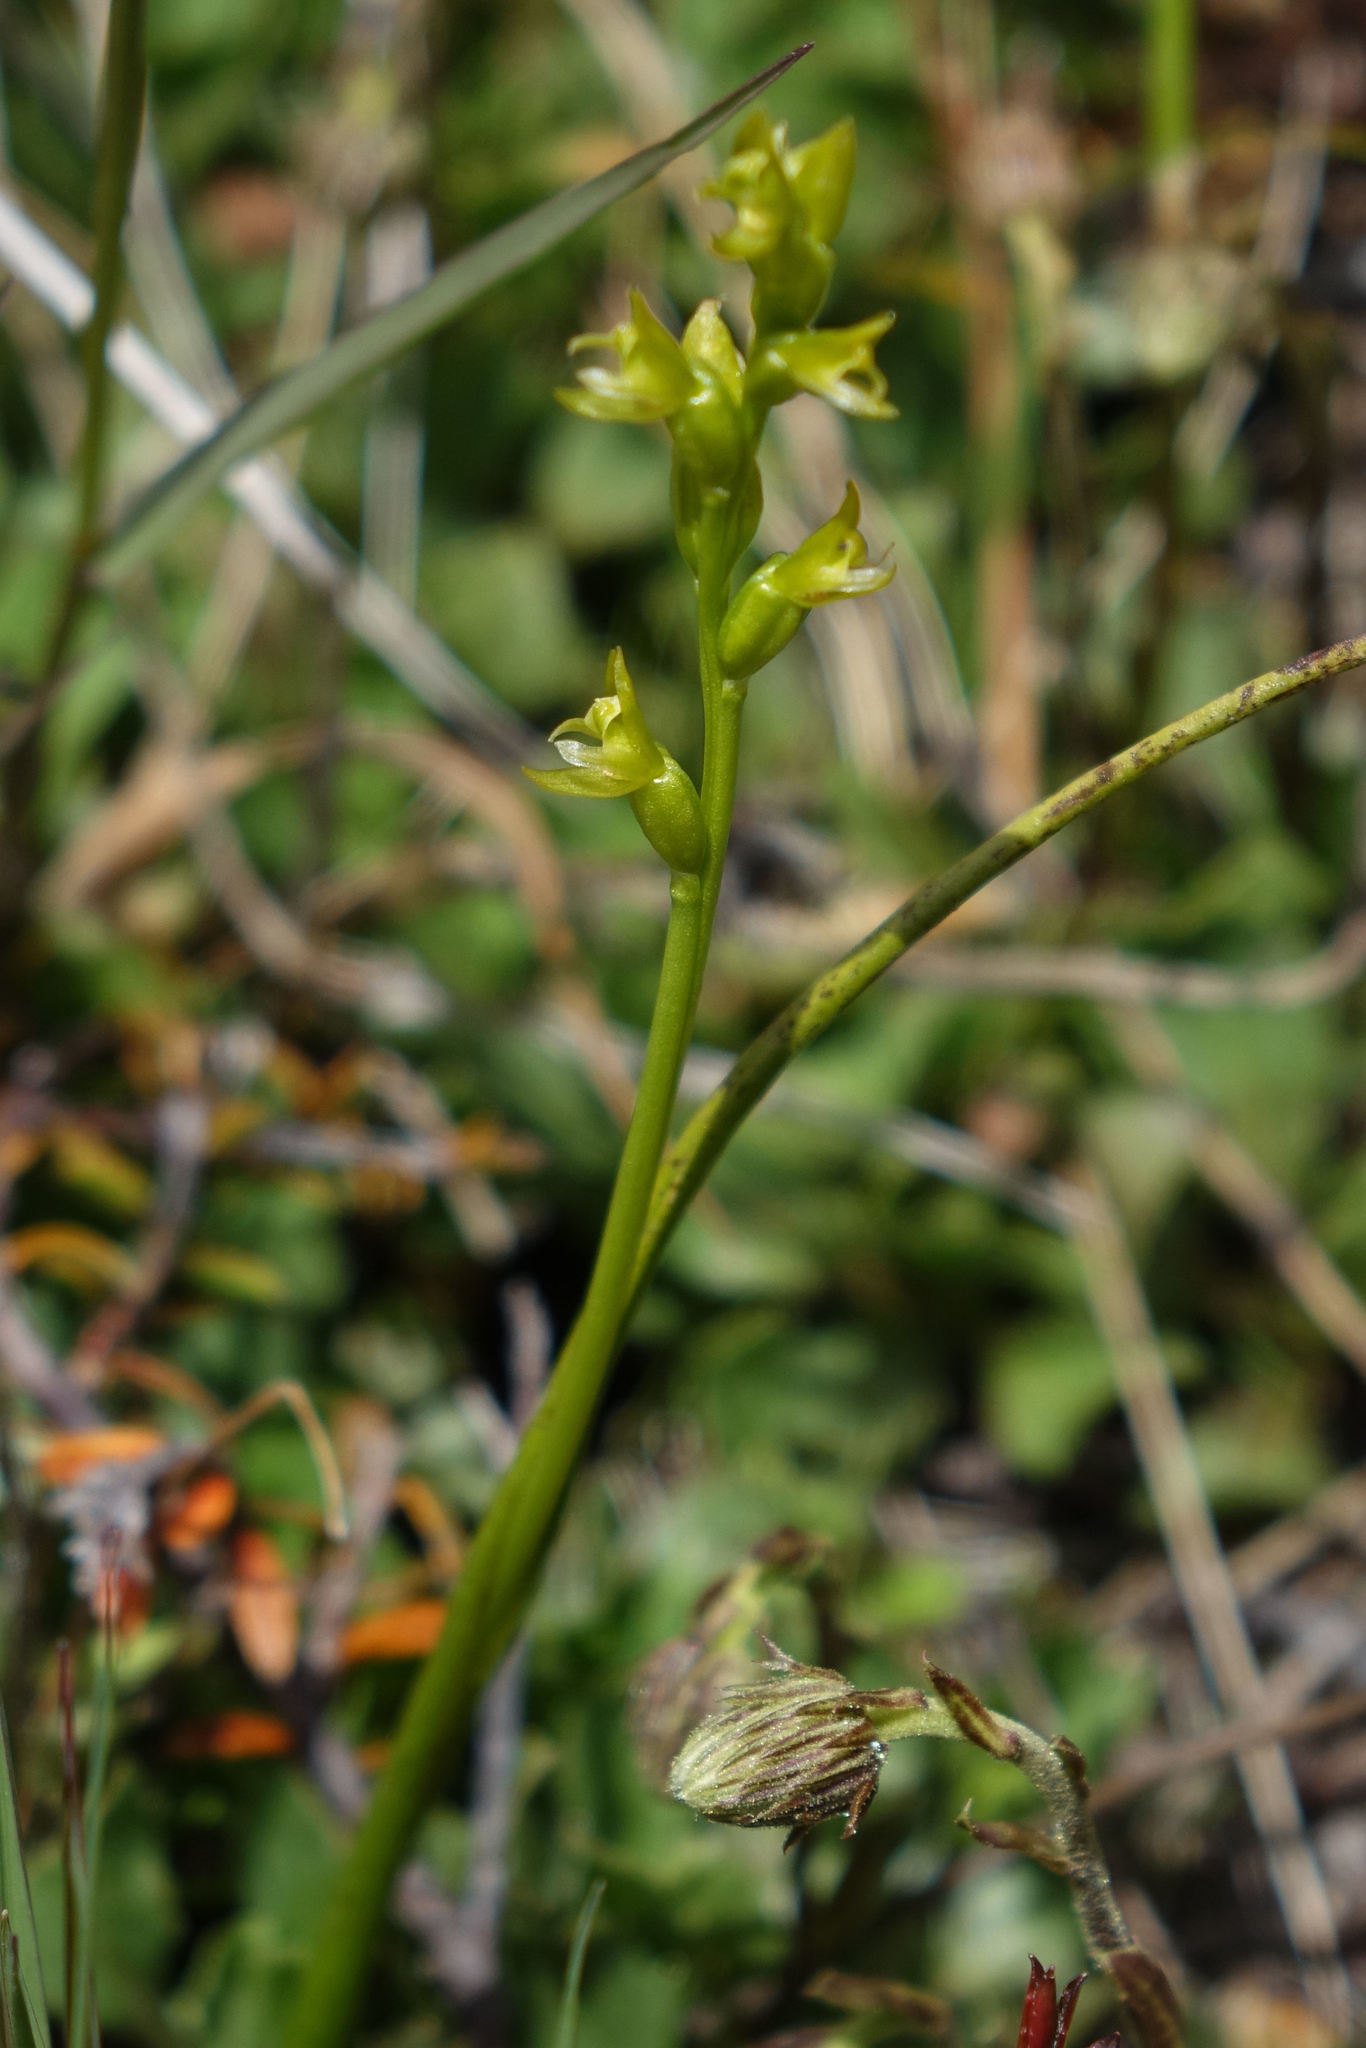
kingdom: Plantae
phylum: Tracheophyta
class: Liliopsida
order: Asparagales
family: Orchidaceae
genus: Prasophyllum
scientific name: Prasophyllum colensoi
